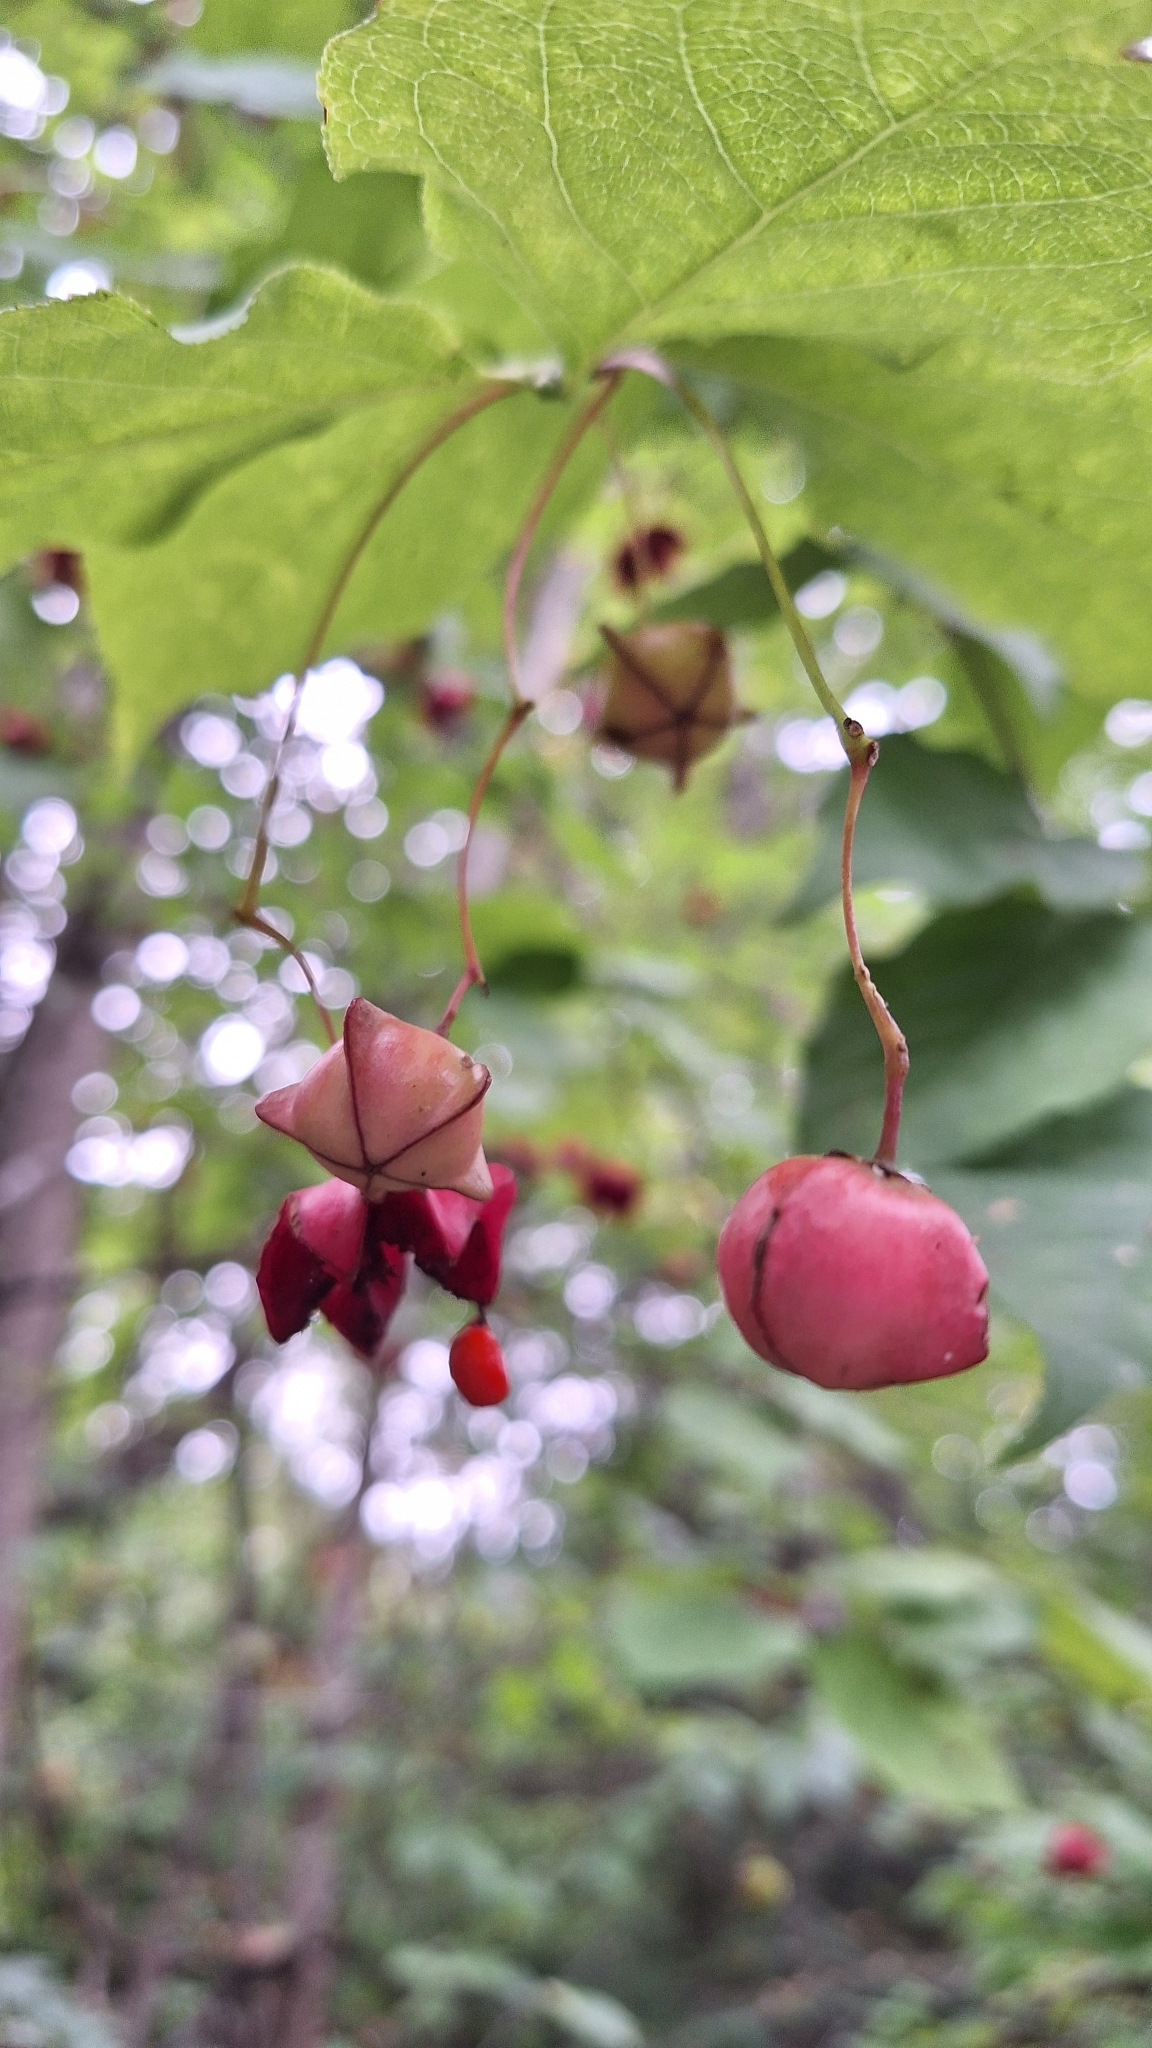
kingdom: Plantae
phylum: Tracheophyta
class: Magnoliopsida
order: Celastrales
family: Celastraceae
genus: Euonymus
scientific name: Euonymus sachalinensis
